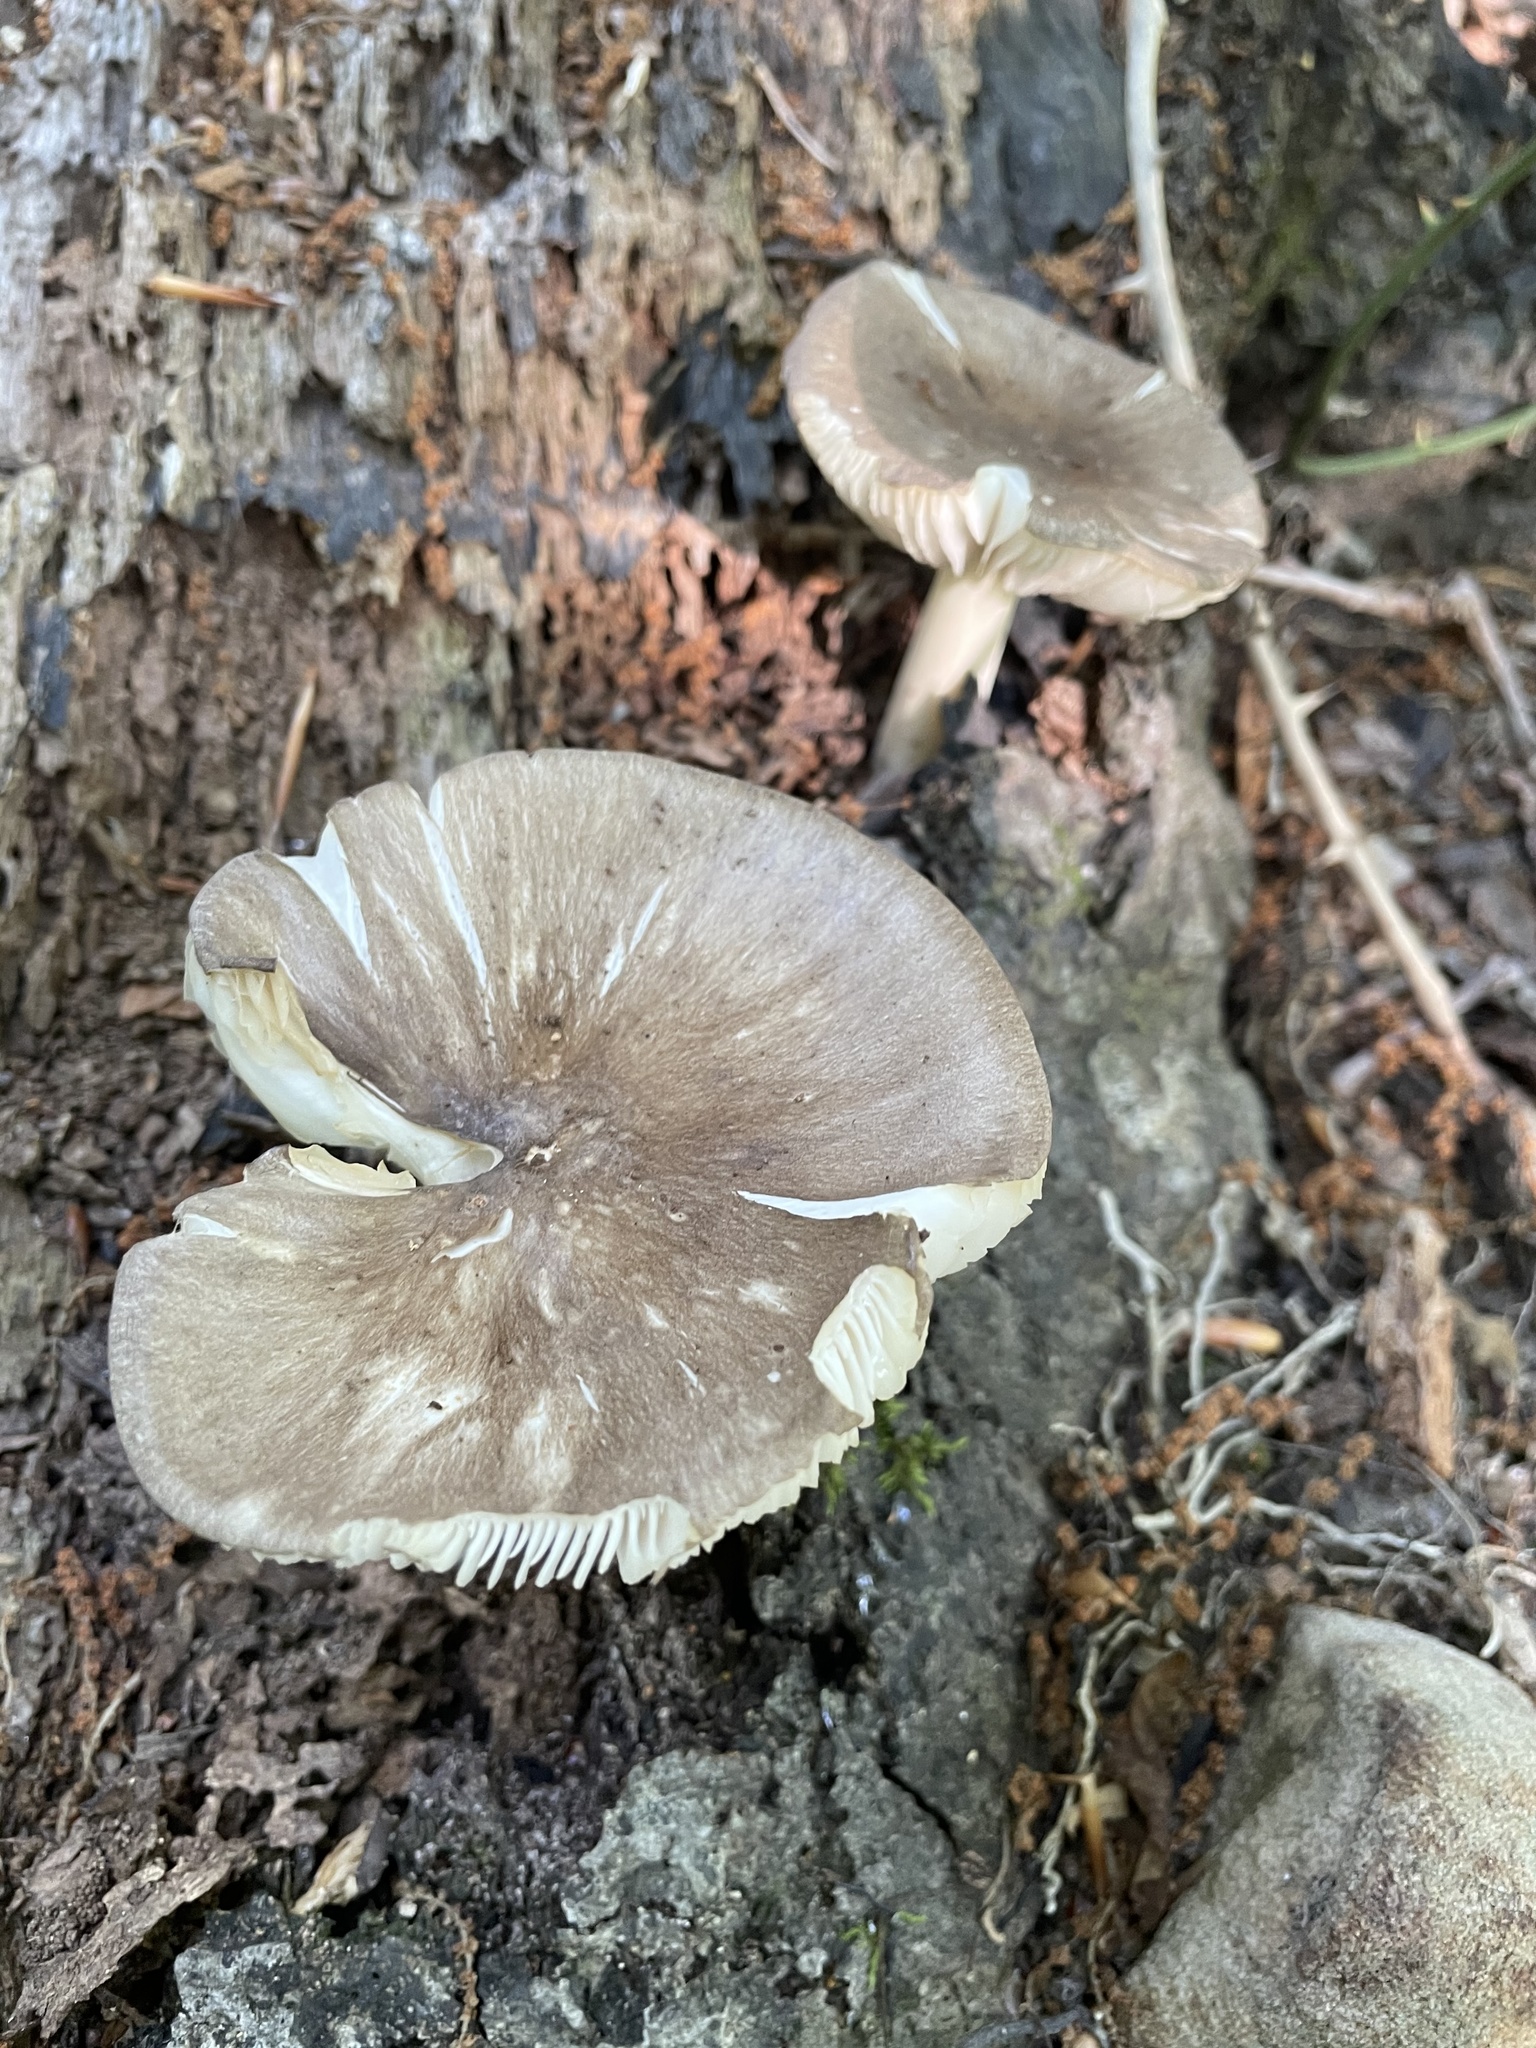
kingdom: Fungi
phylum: Basidiomycota
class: Agaricomycetes
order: Agaricales
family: Tricholomataceae
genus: Megacollybia
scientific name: Megacollybia rodmanii
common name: Eastern american platterful mushroom
